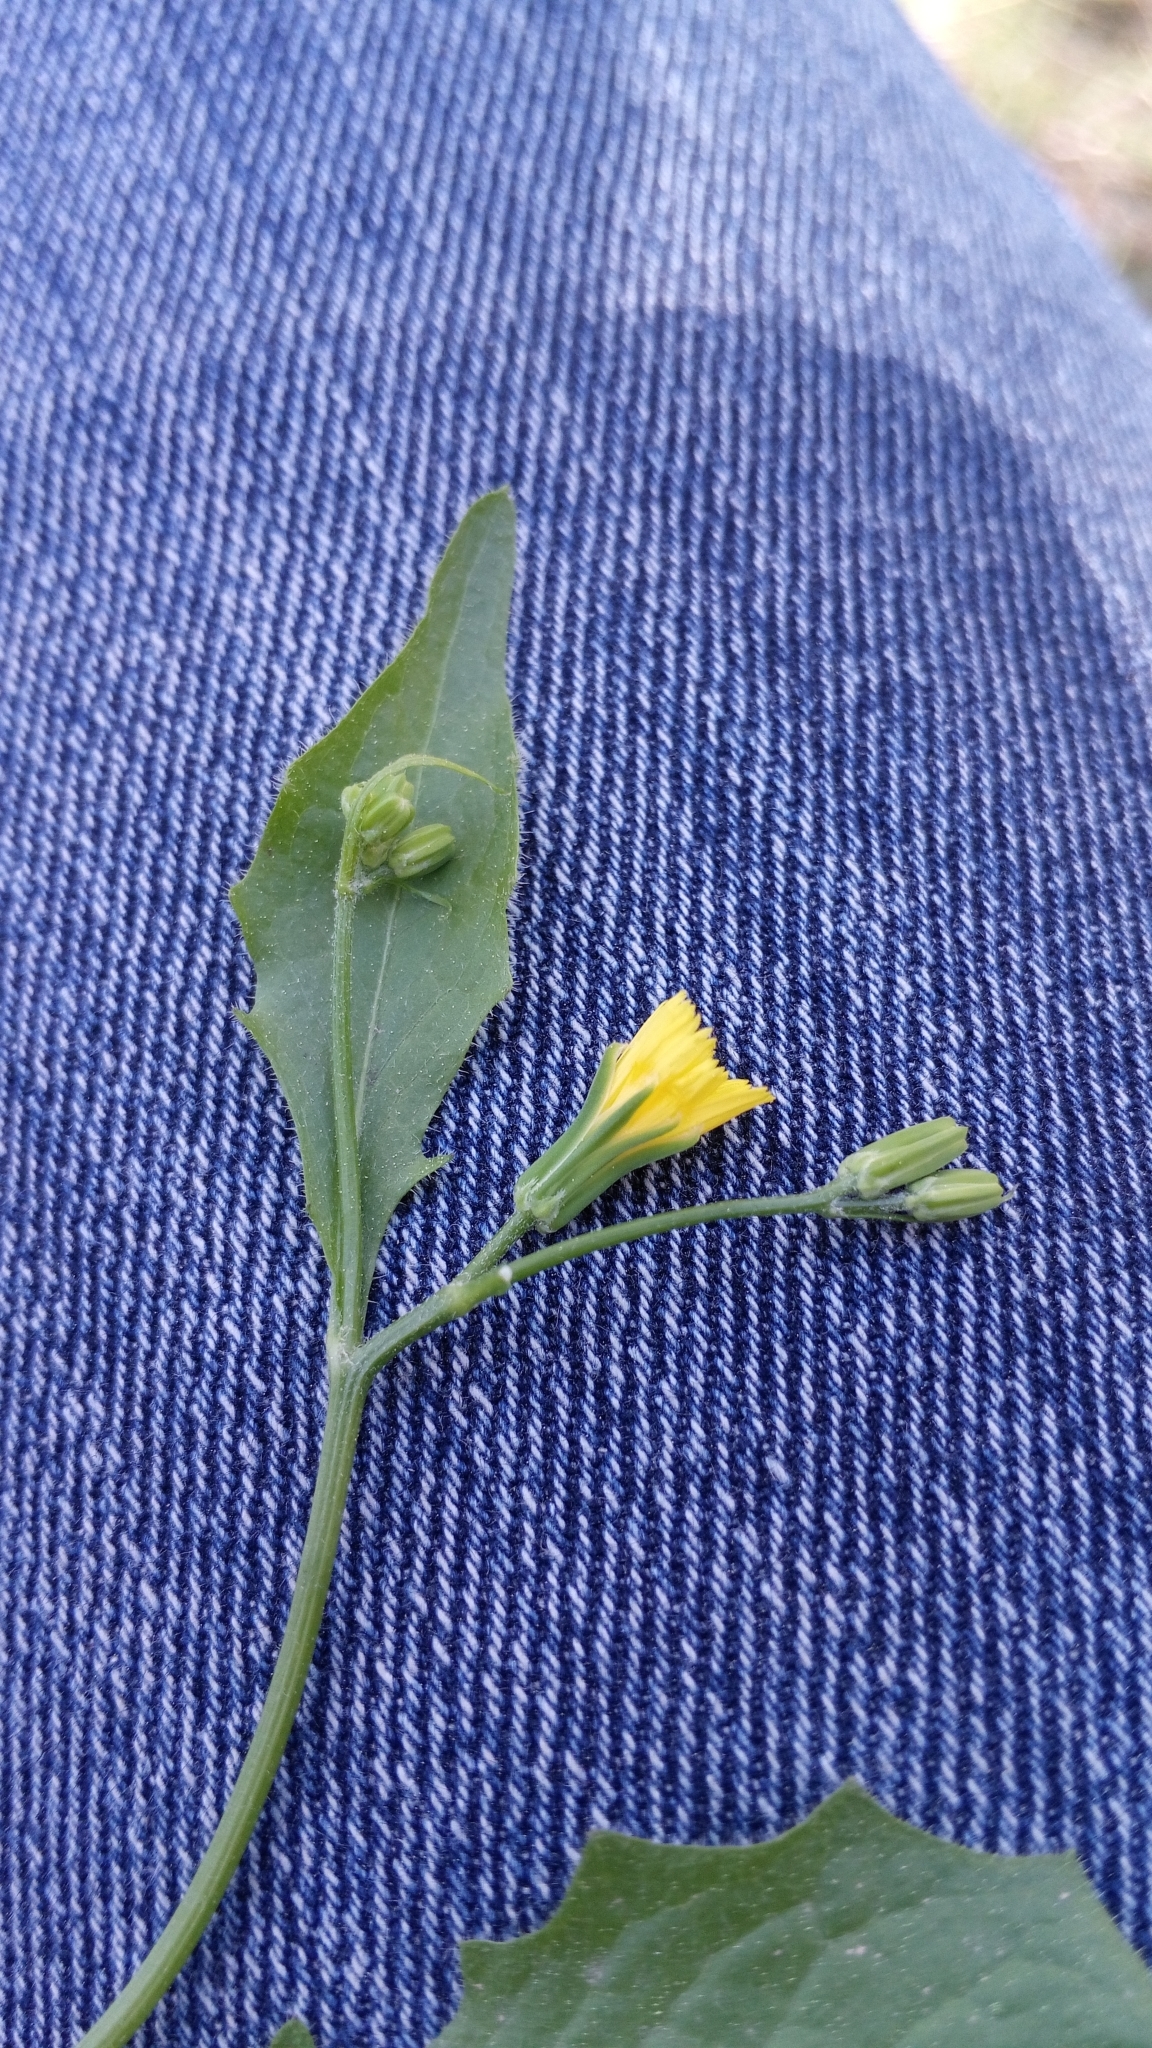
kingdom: Plantae
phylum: Tracheophyta
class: Magnoliopsida
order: Asterales
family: Asteraceae
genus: Rhagadiolus
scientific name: Rhagadiolus edulis
